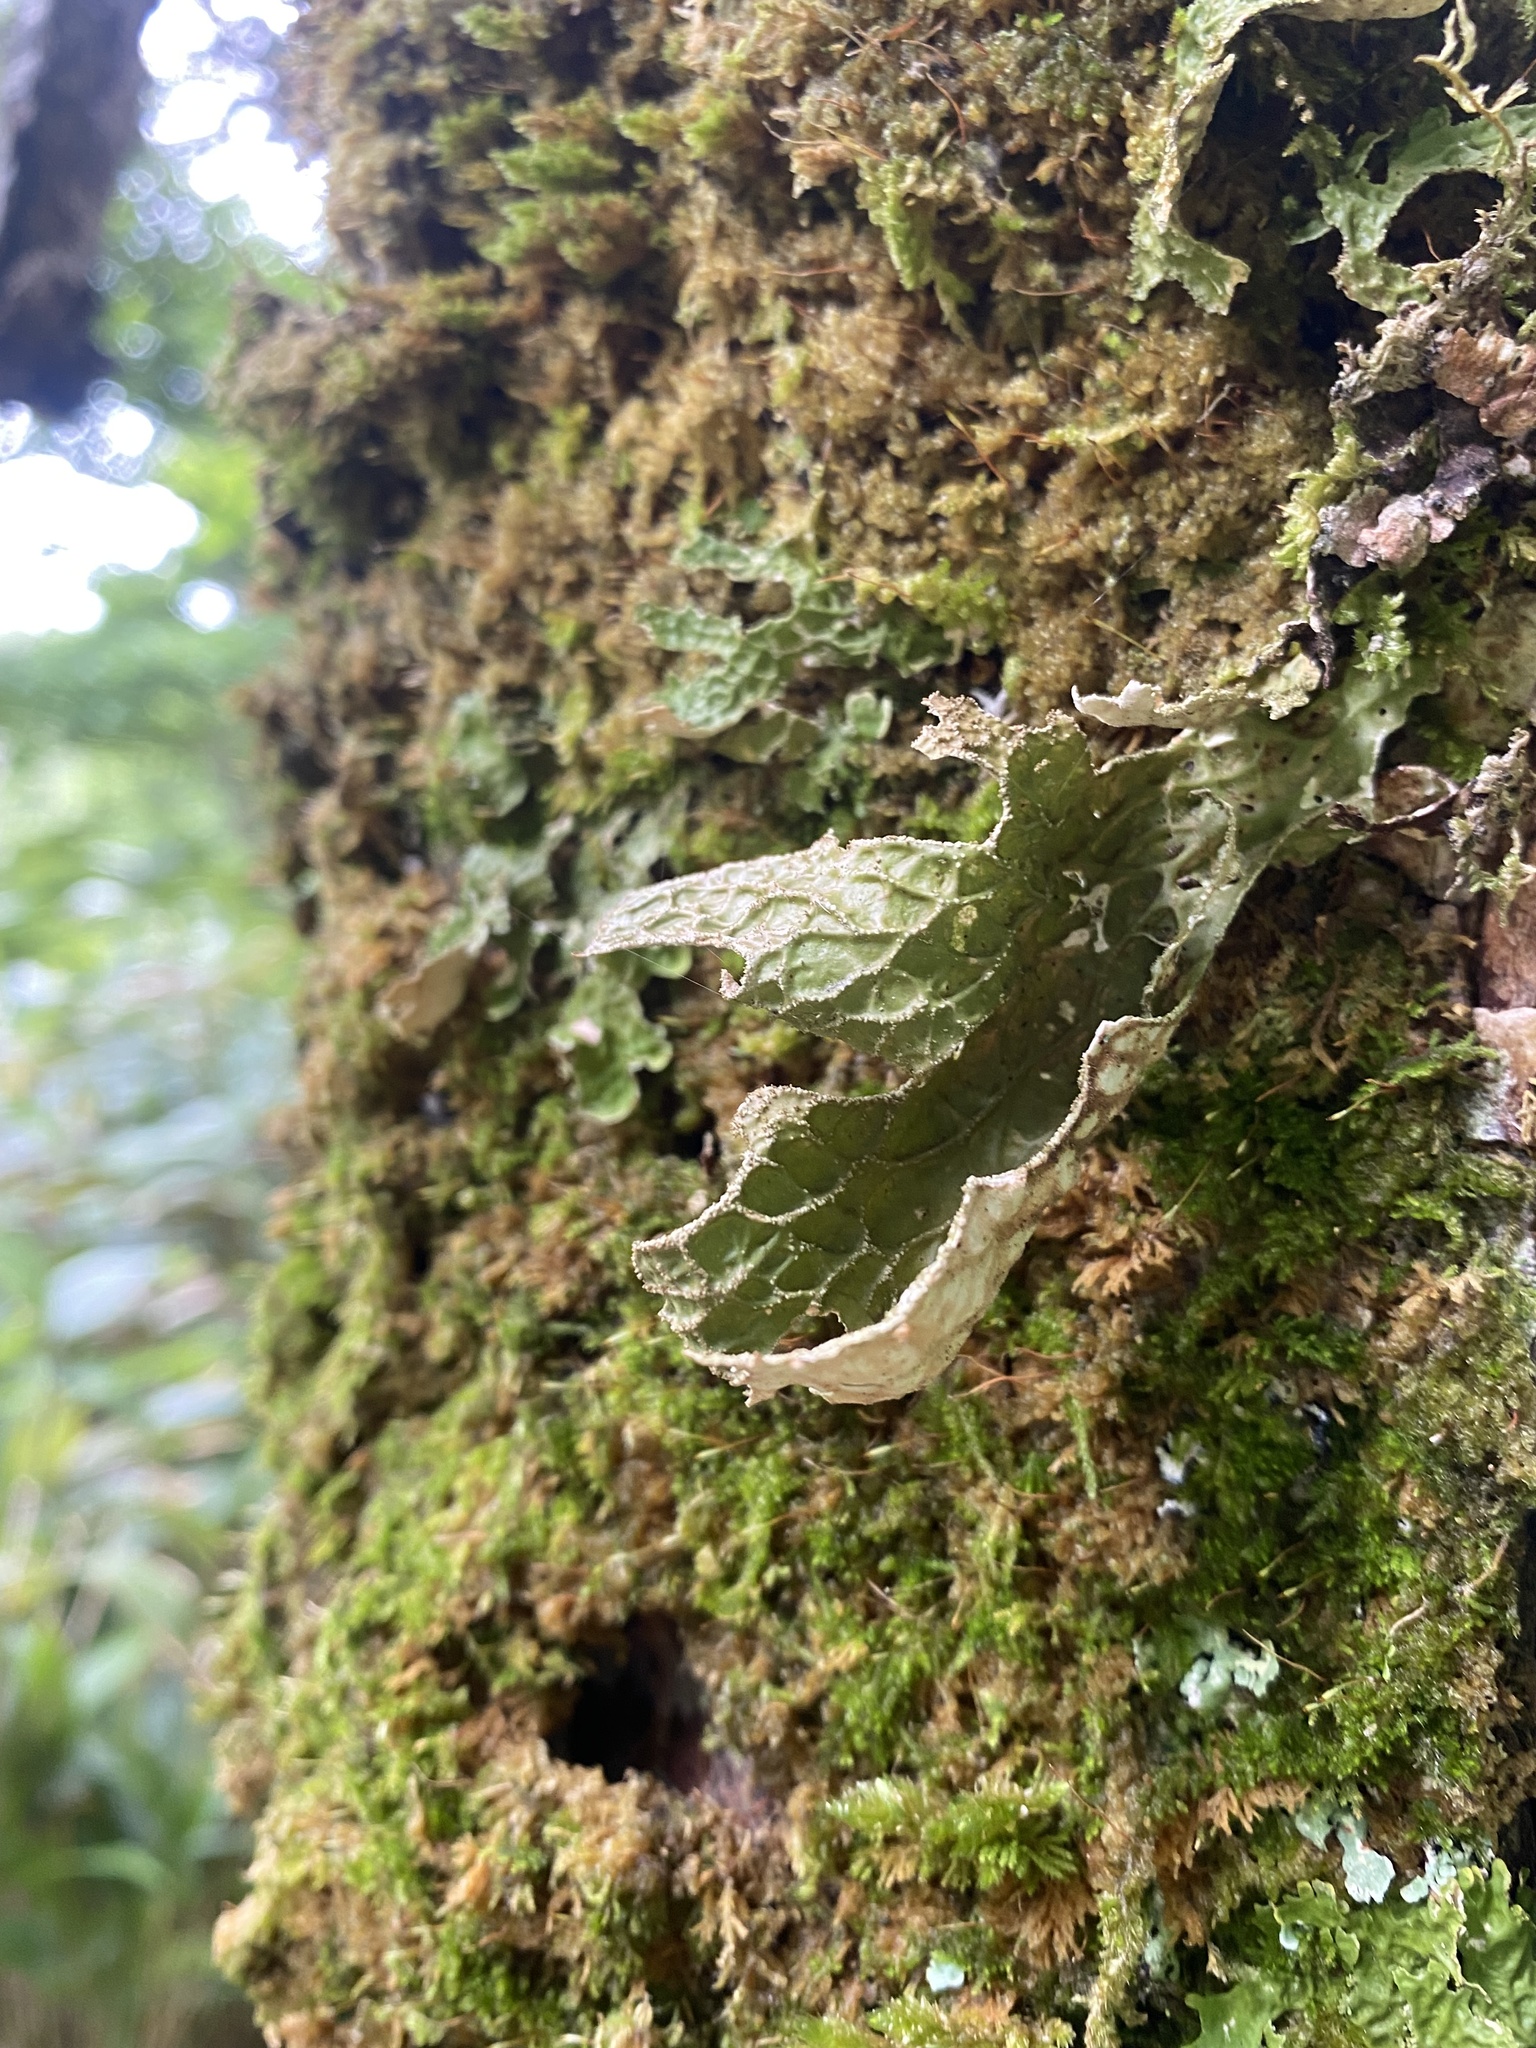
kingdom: Fungi
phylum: Ascomycota
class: Lecanoromycetes
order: Peltigerales
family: Lobariaceae
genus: Lobaria
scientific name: Lobaria pulmonaria
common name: Lungwort
